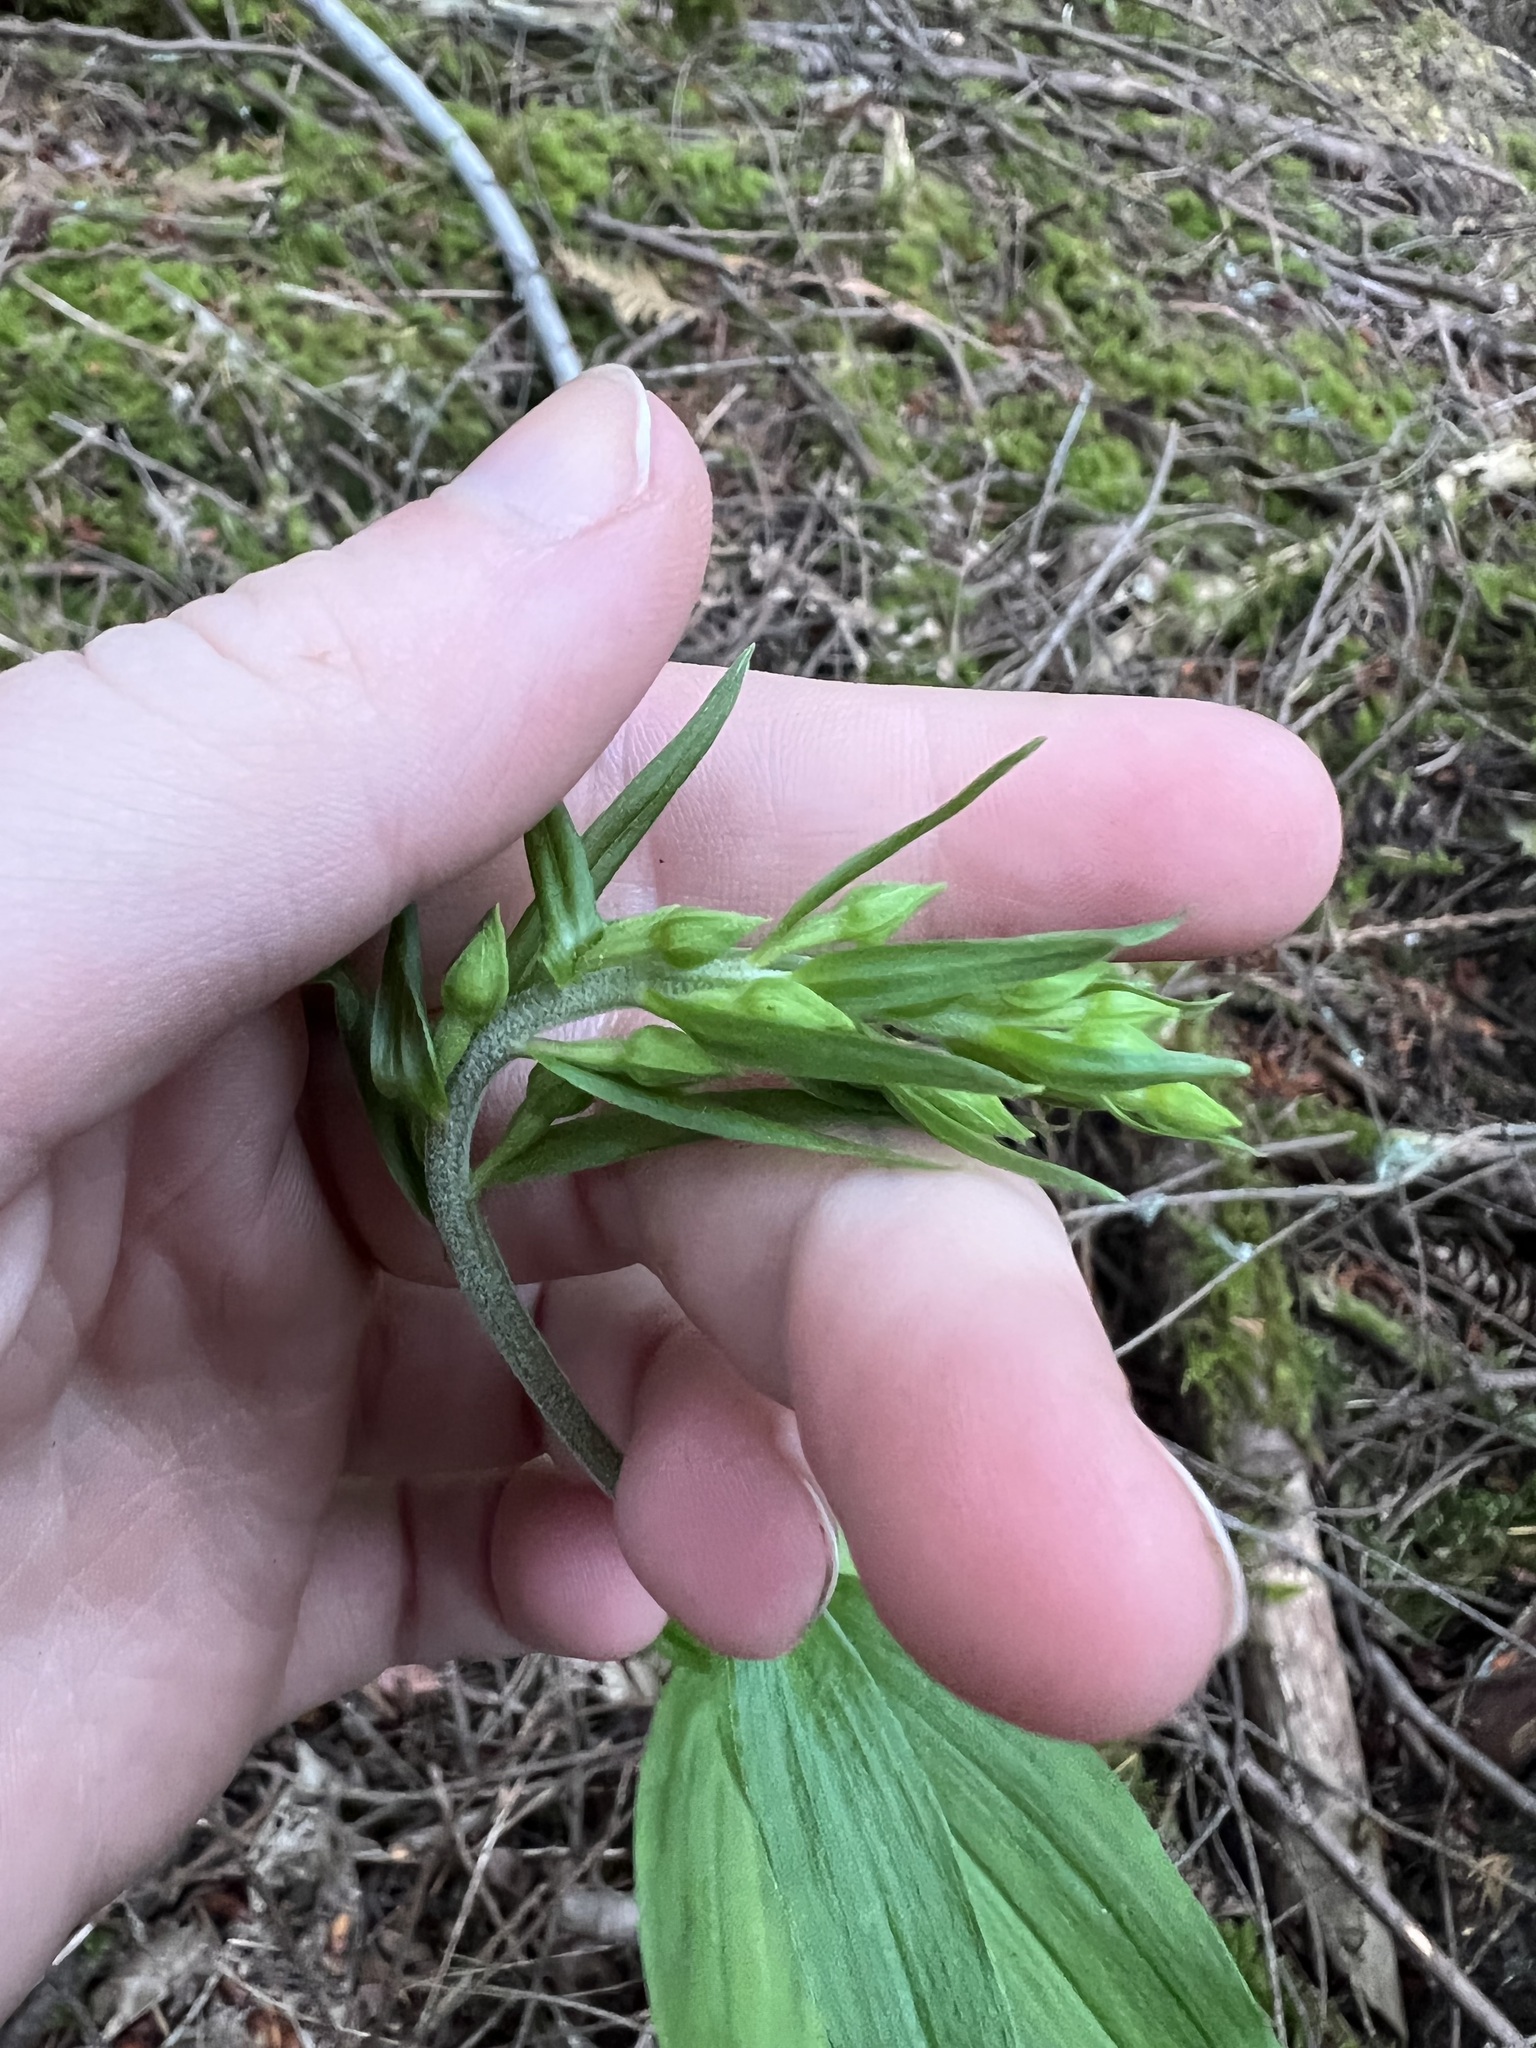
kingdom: Plantae
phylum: Tracheophyta
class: Liliopsida
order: Asparagales
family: Orchidaceae
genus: Epipactis
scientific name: Epipactis helleborine
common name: Broad-leaved helleborine
